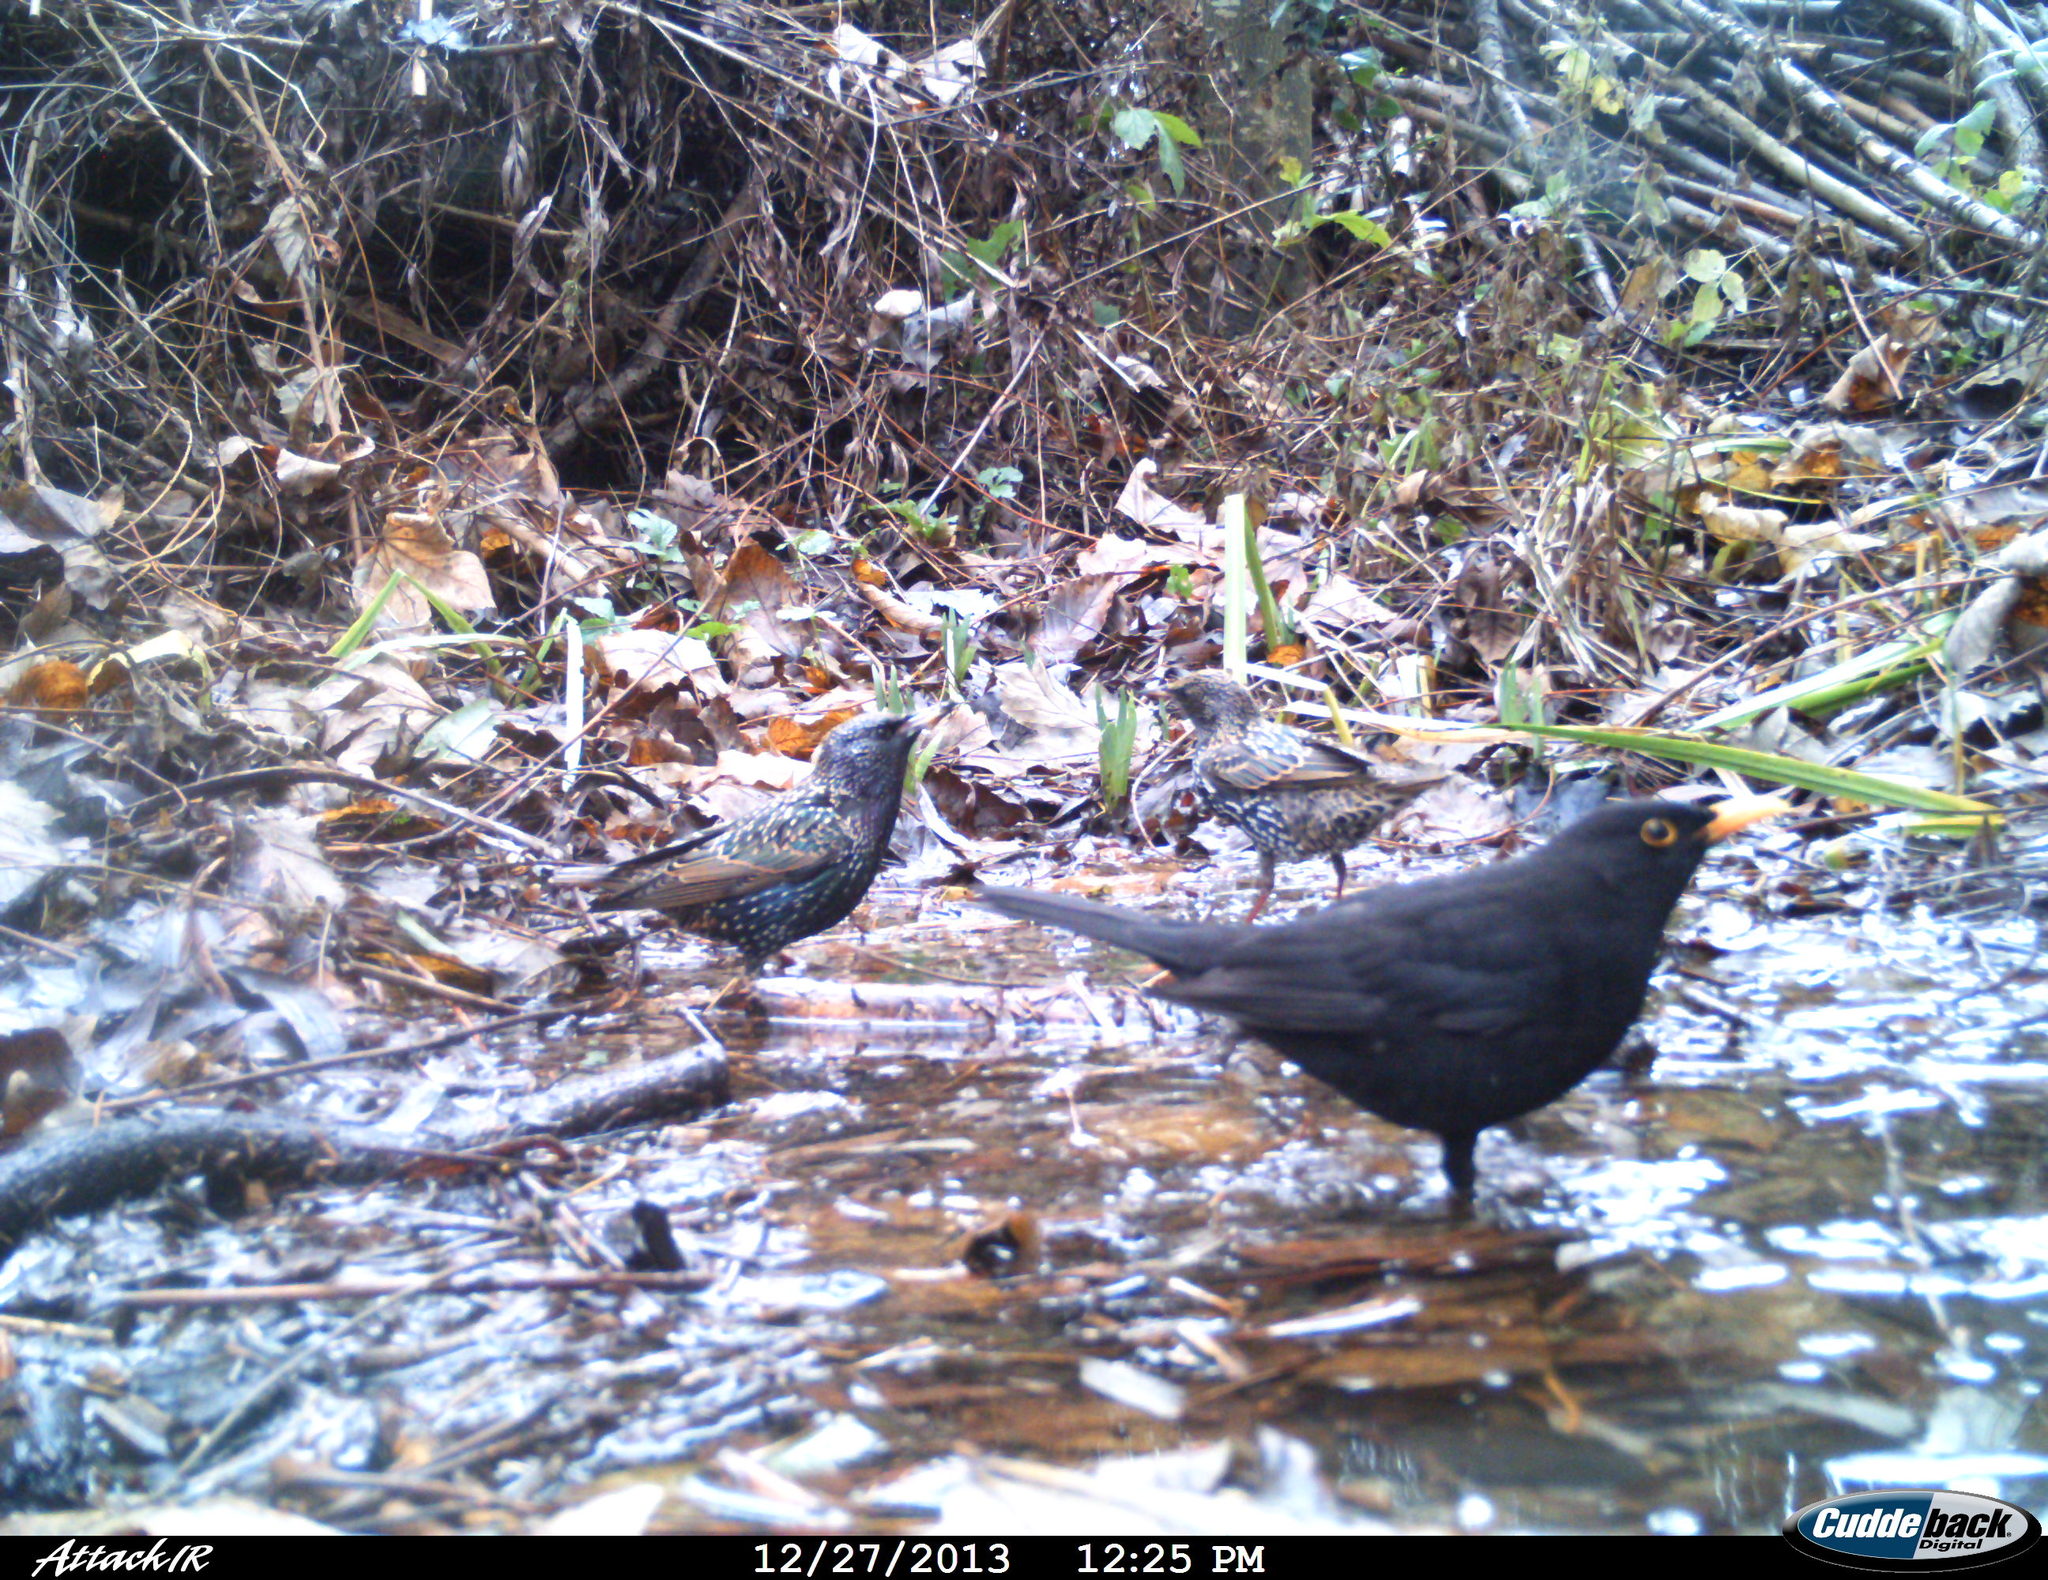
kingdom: Animalia
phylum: Chordata
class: Aves
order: Passeriformes
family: Sturnidae
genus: Sturnus
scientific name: Sturnus vulgaris
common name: Common starling
